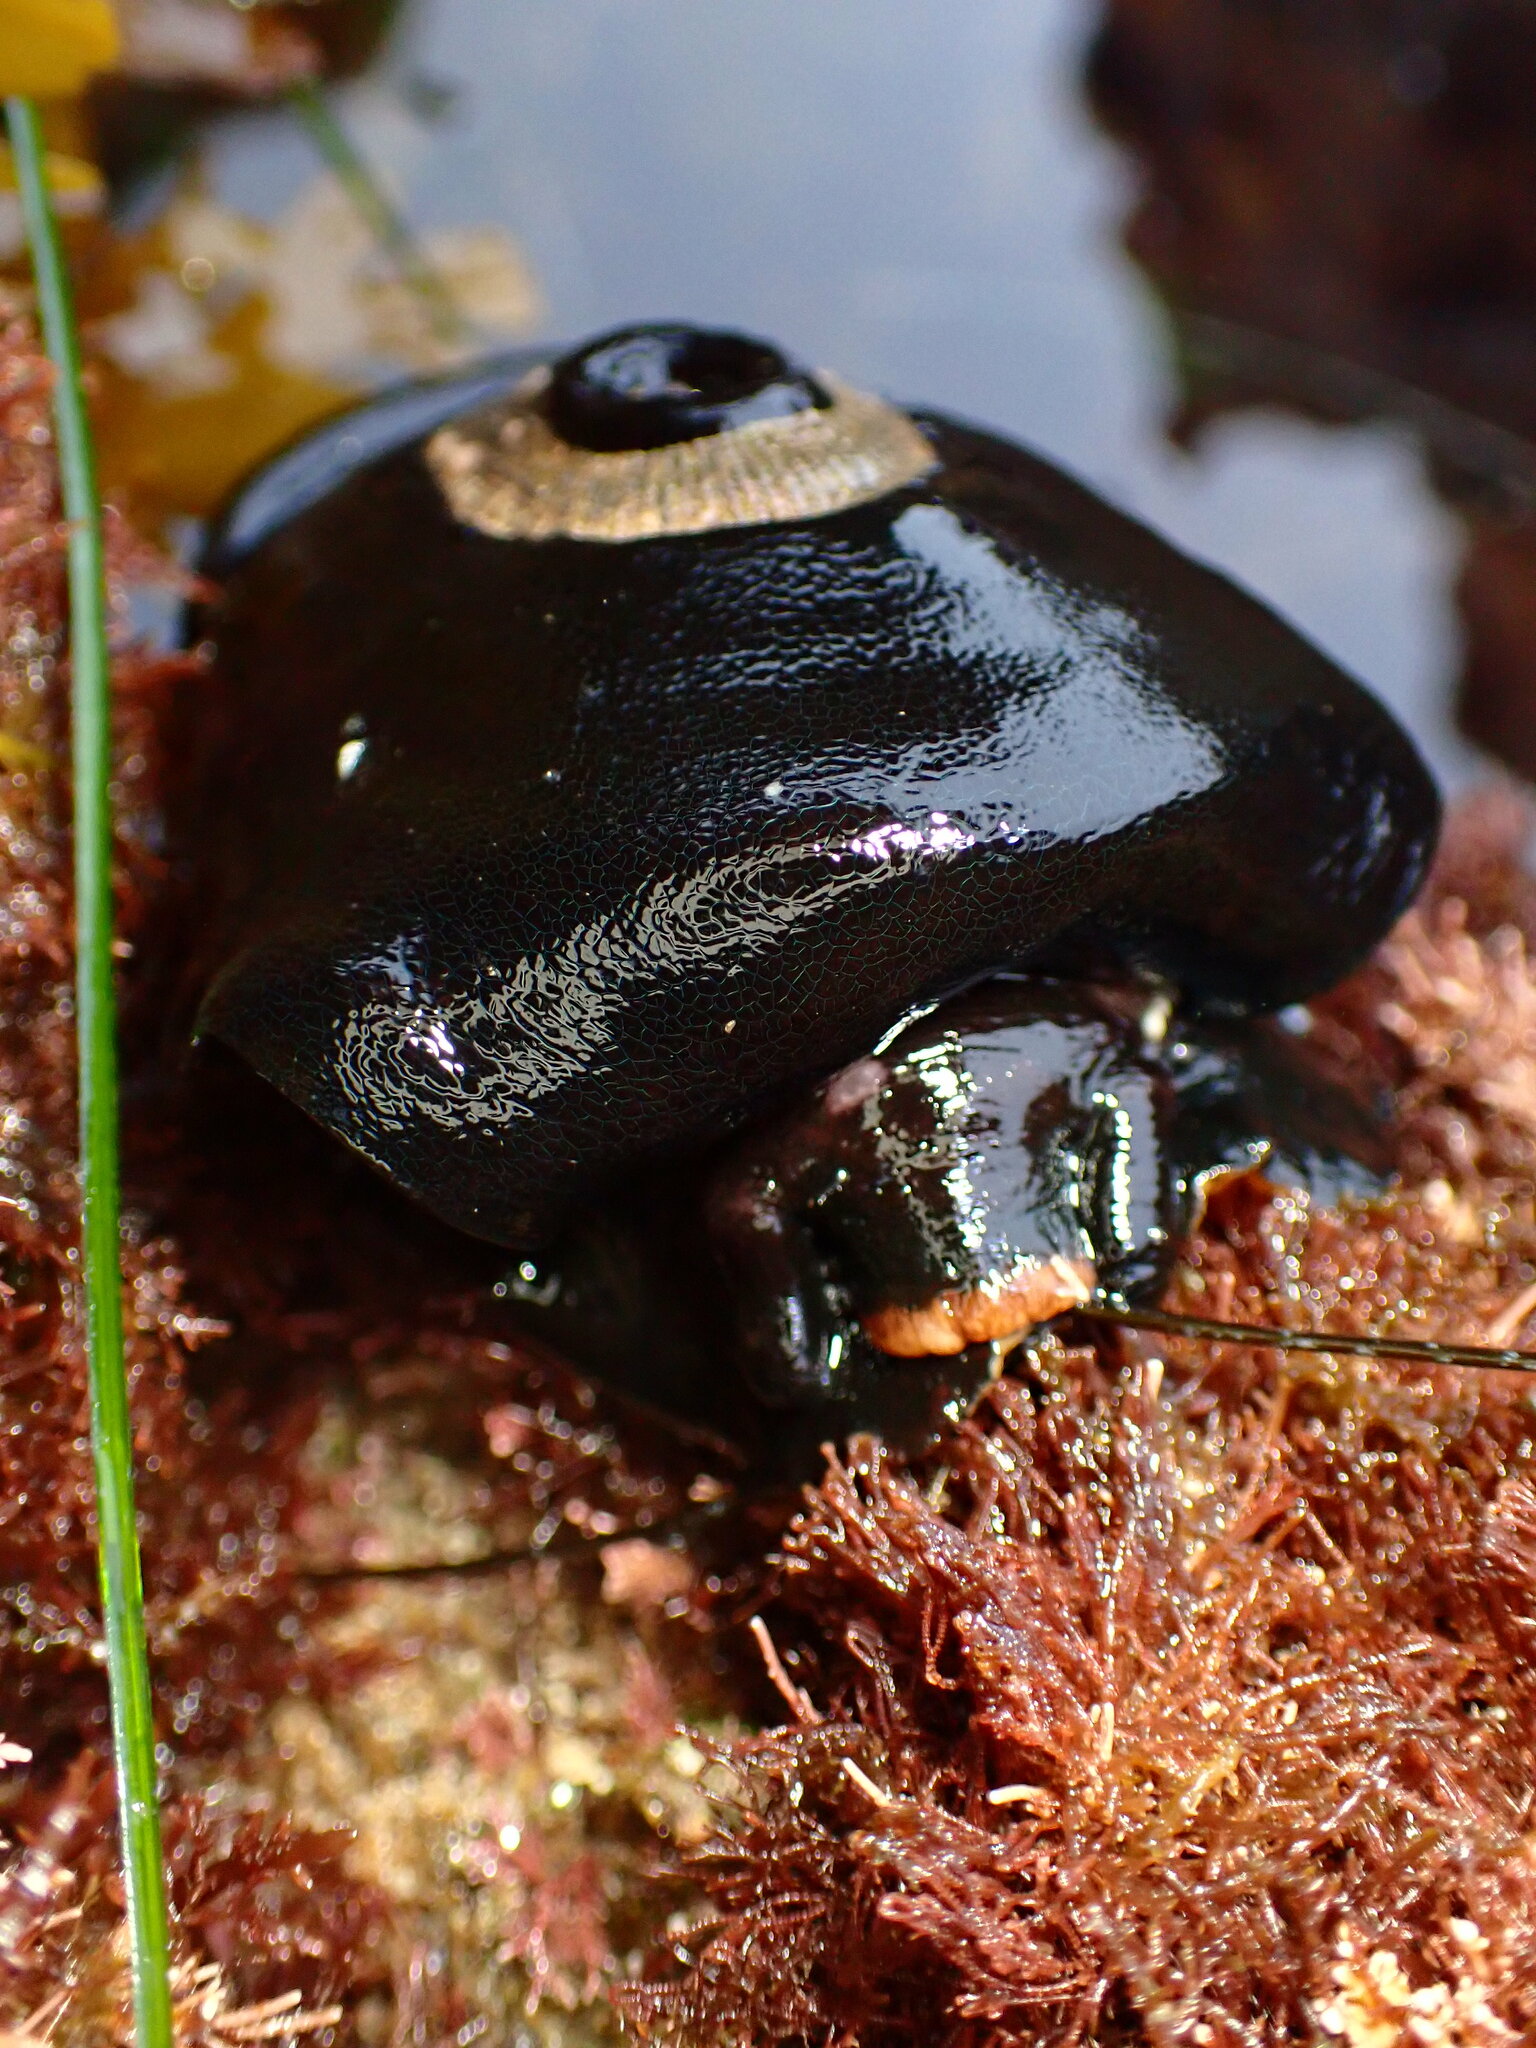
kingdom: Animalia
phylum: Mollusca
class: Gastropoda
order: Lepetellida
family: Fissurellidae
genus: Megathura
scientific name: Megathura crenulata
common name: Giant keyhole limpet
